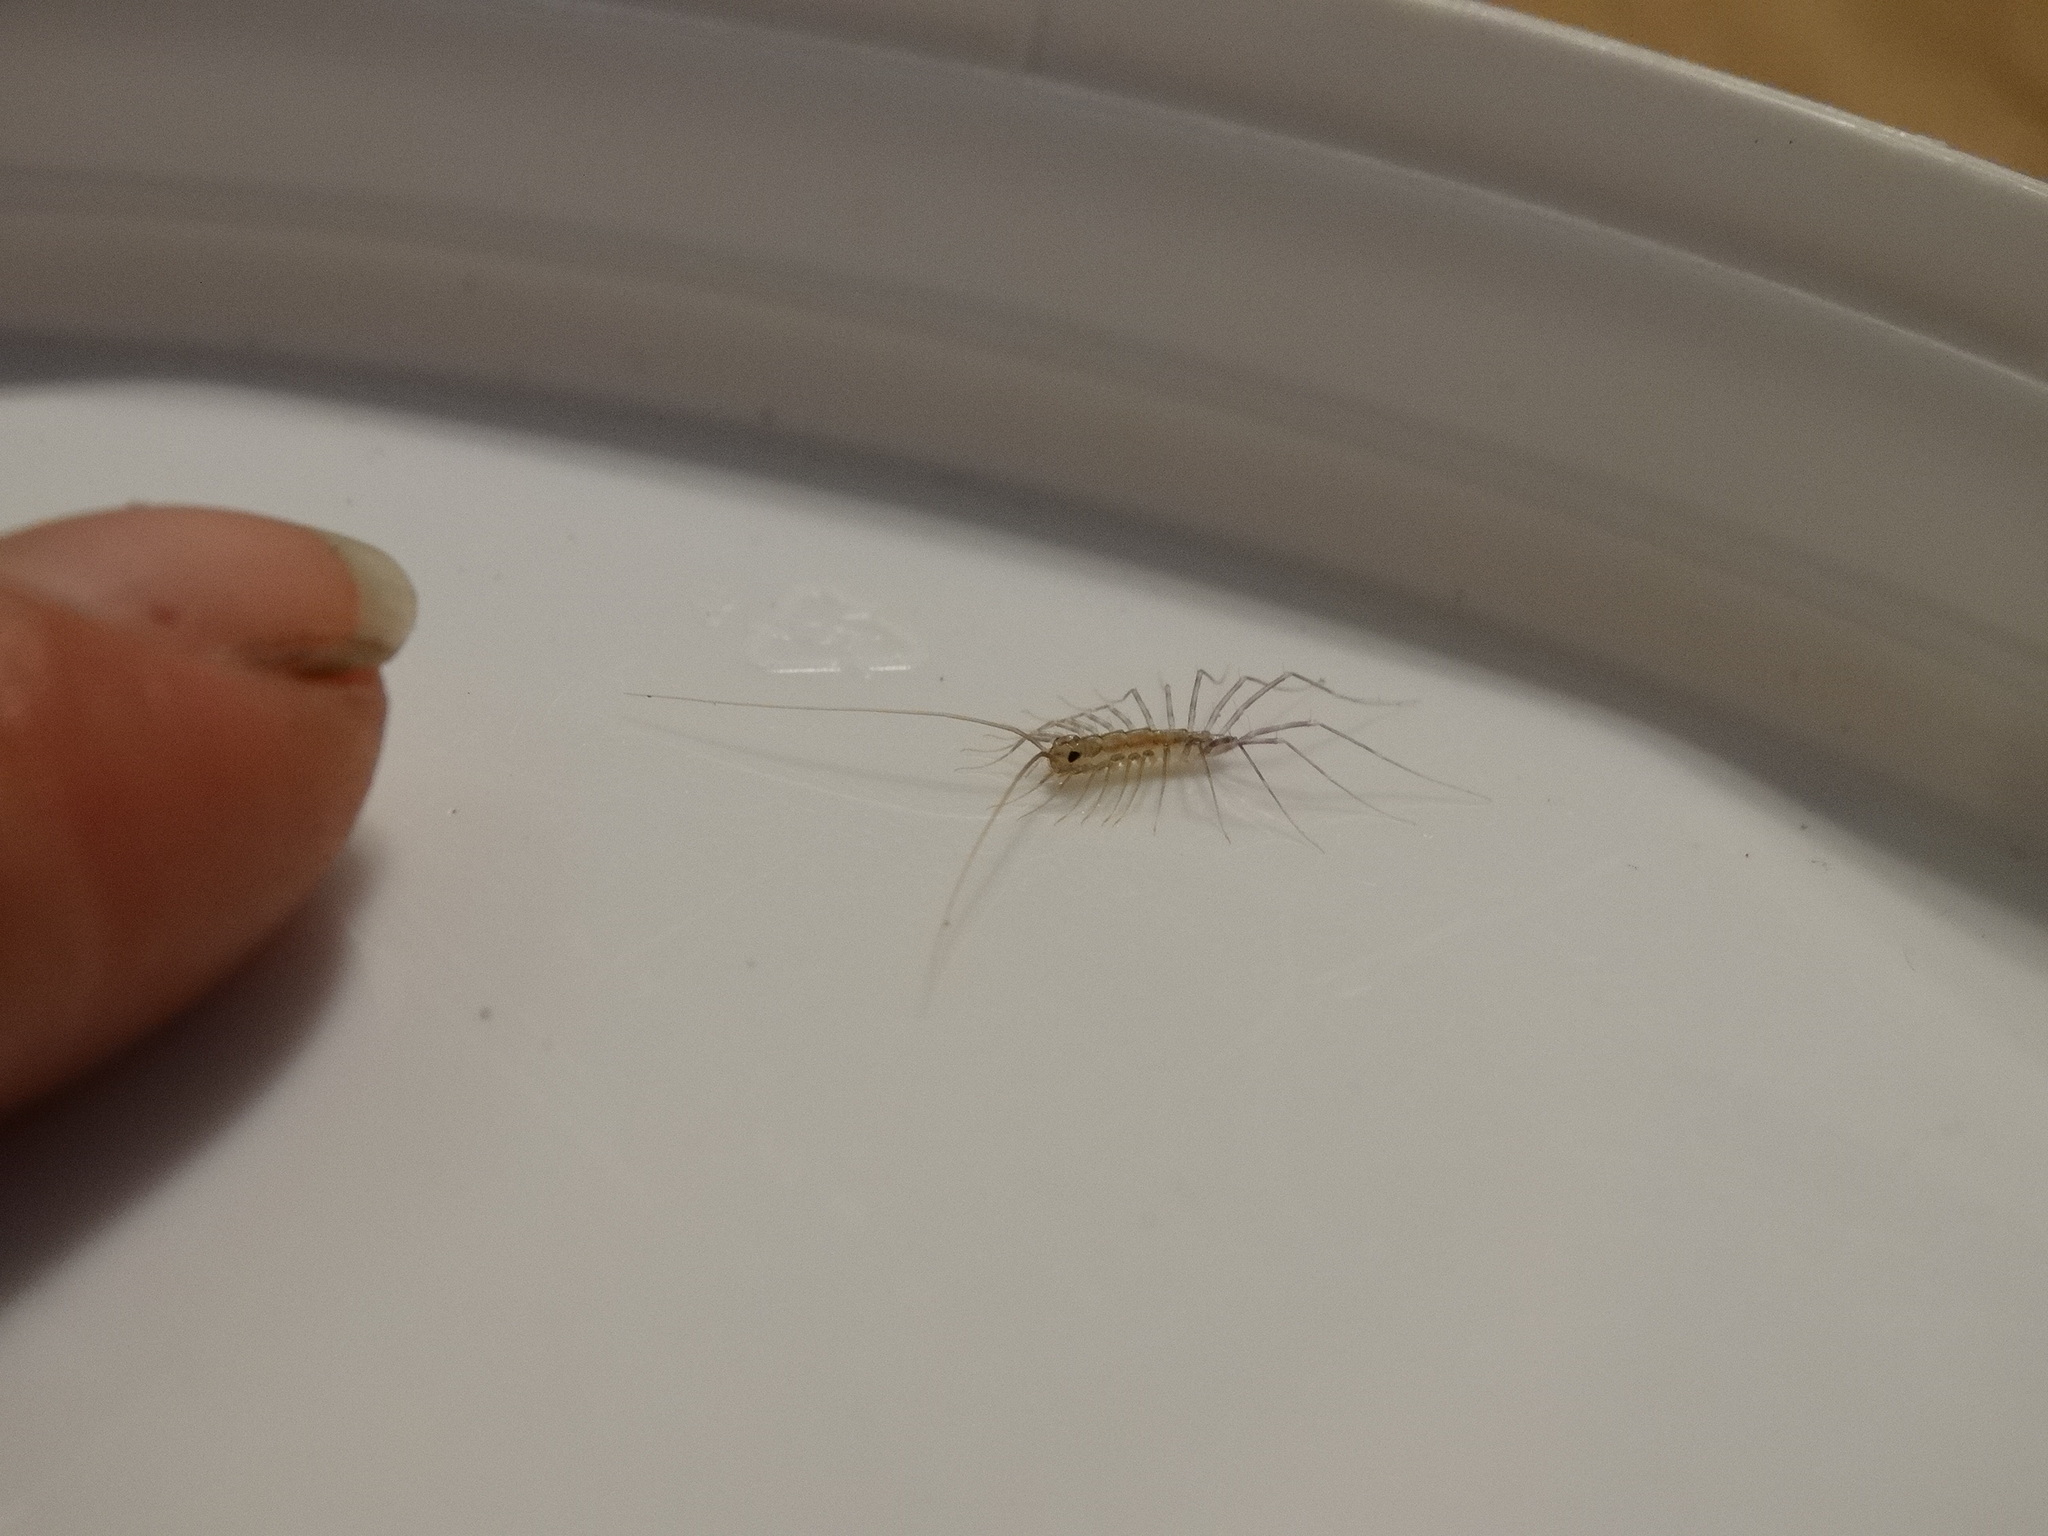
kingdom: Animalia
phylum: Arthropoda
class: Chilopoda
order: Scutigeromorpha
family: Scutigeridae
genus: Scutigera
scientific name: Scutigera coleoptrata
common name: House centipede
